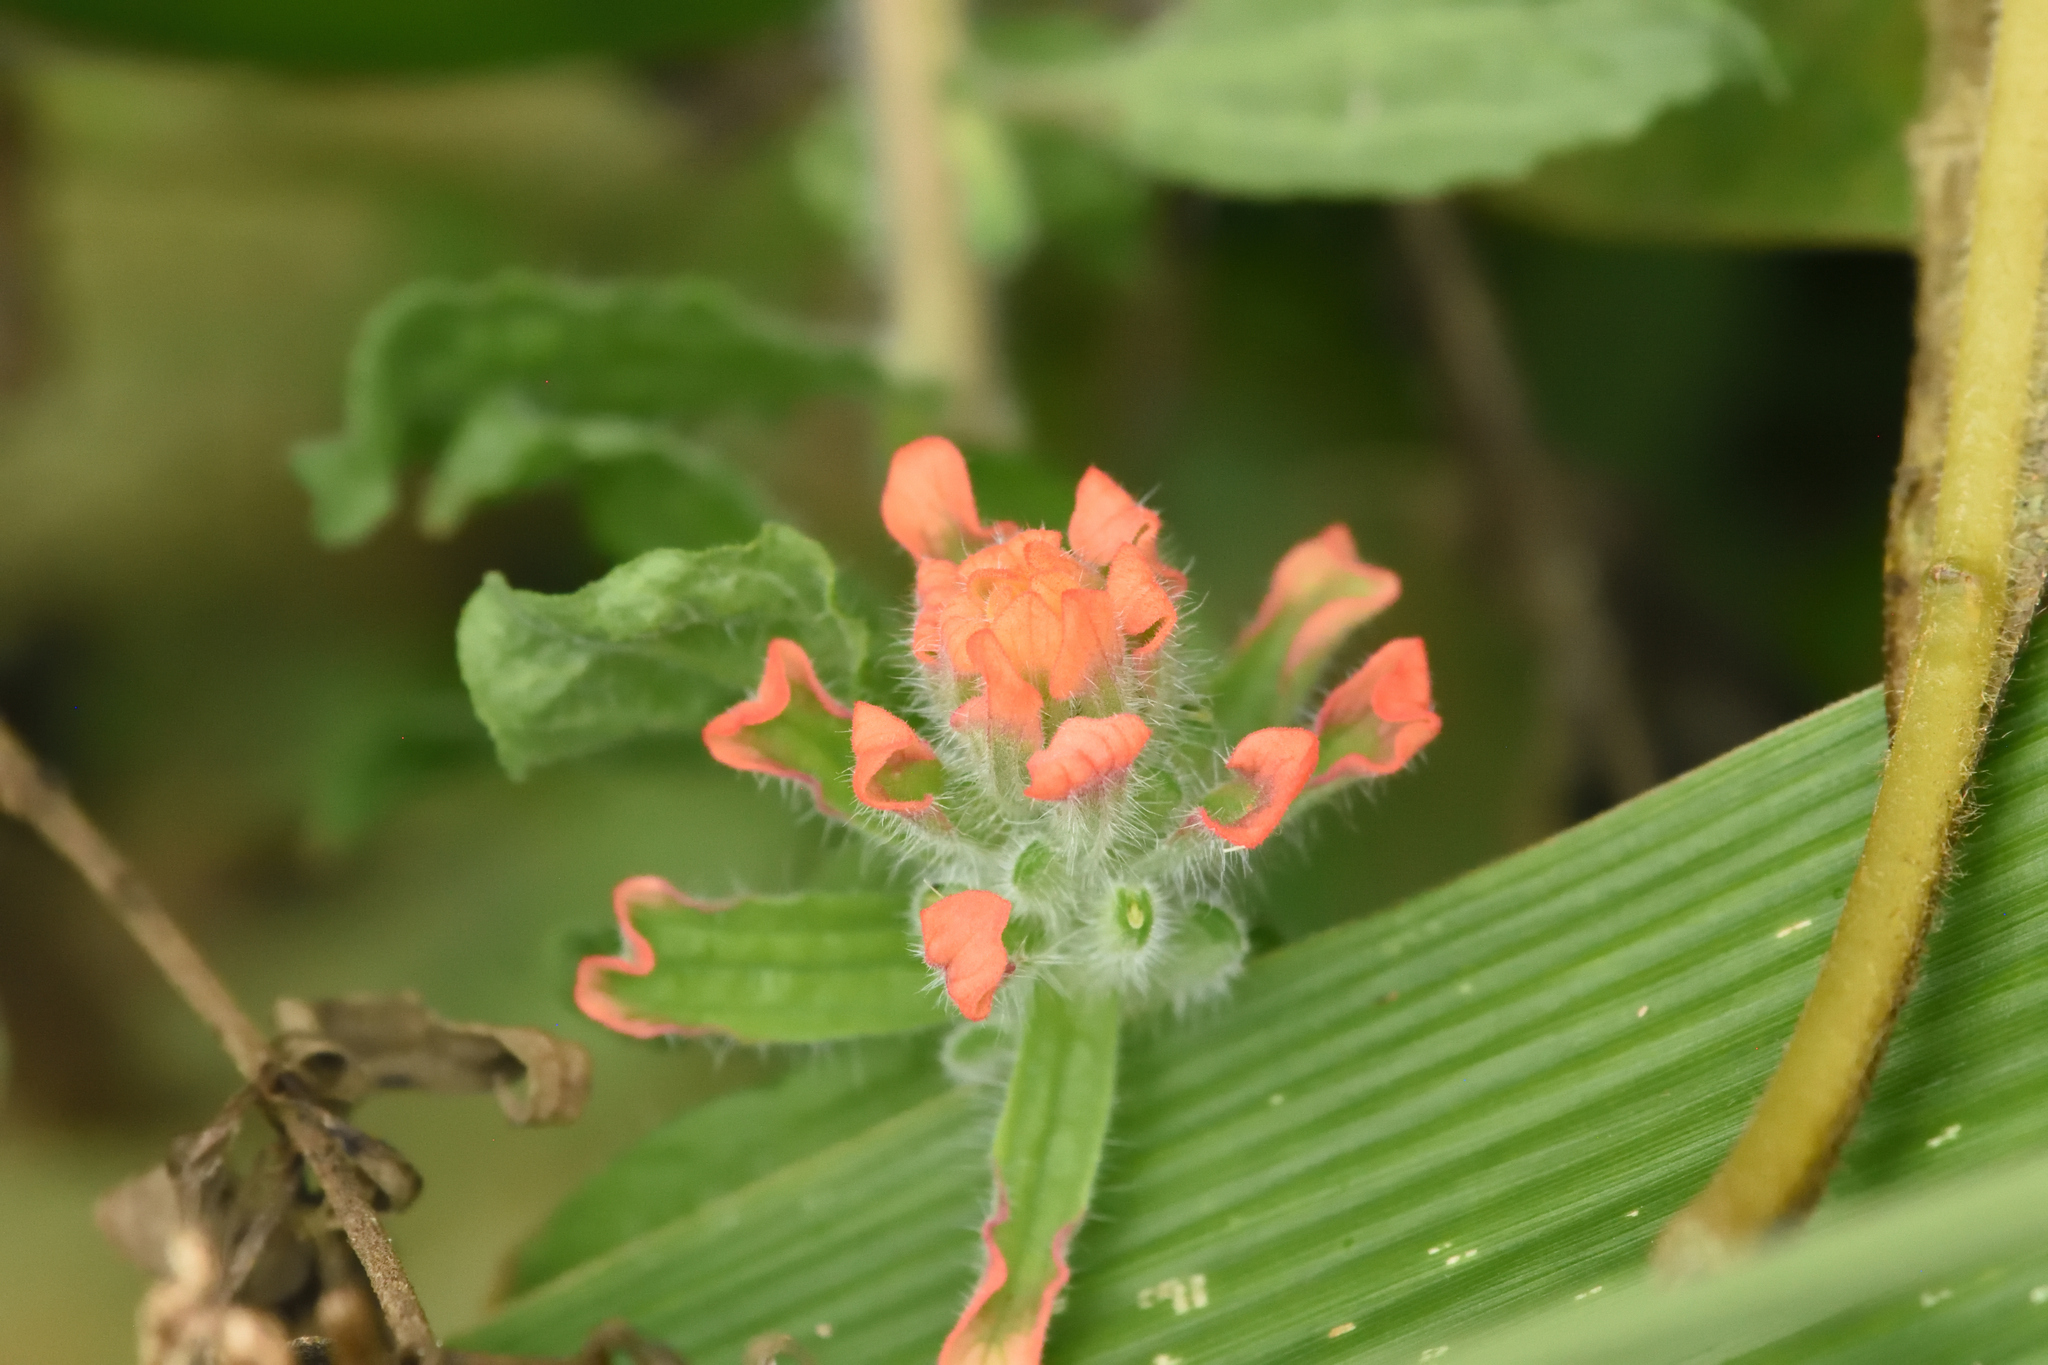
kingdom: Plantae
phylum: Tracheophyta
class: Magnoliopsida
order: Lamiales
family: Orobanchaceae
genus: Castilleja
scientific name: Castilleja arvensis
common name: Indian paintbrush
